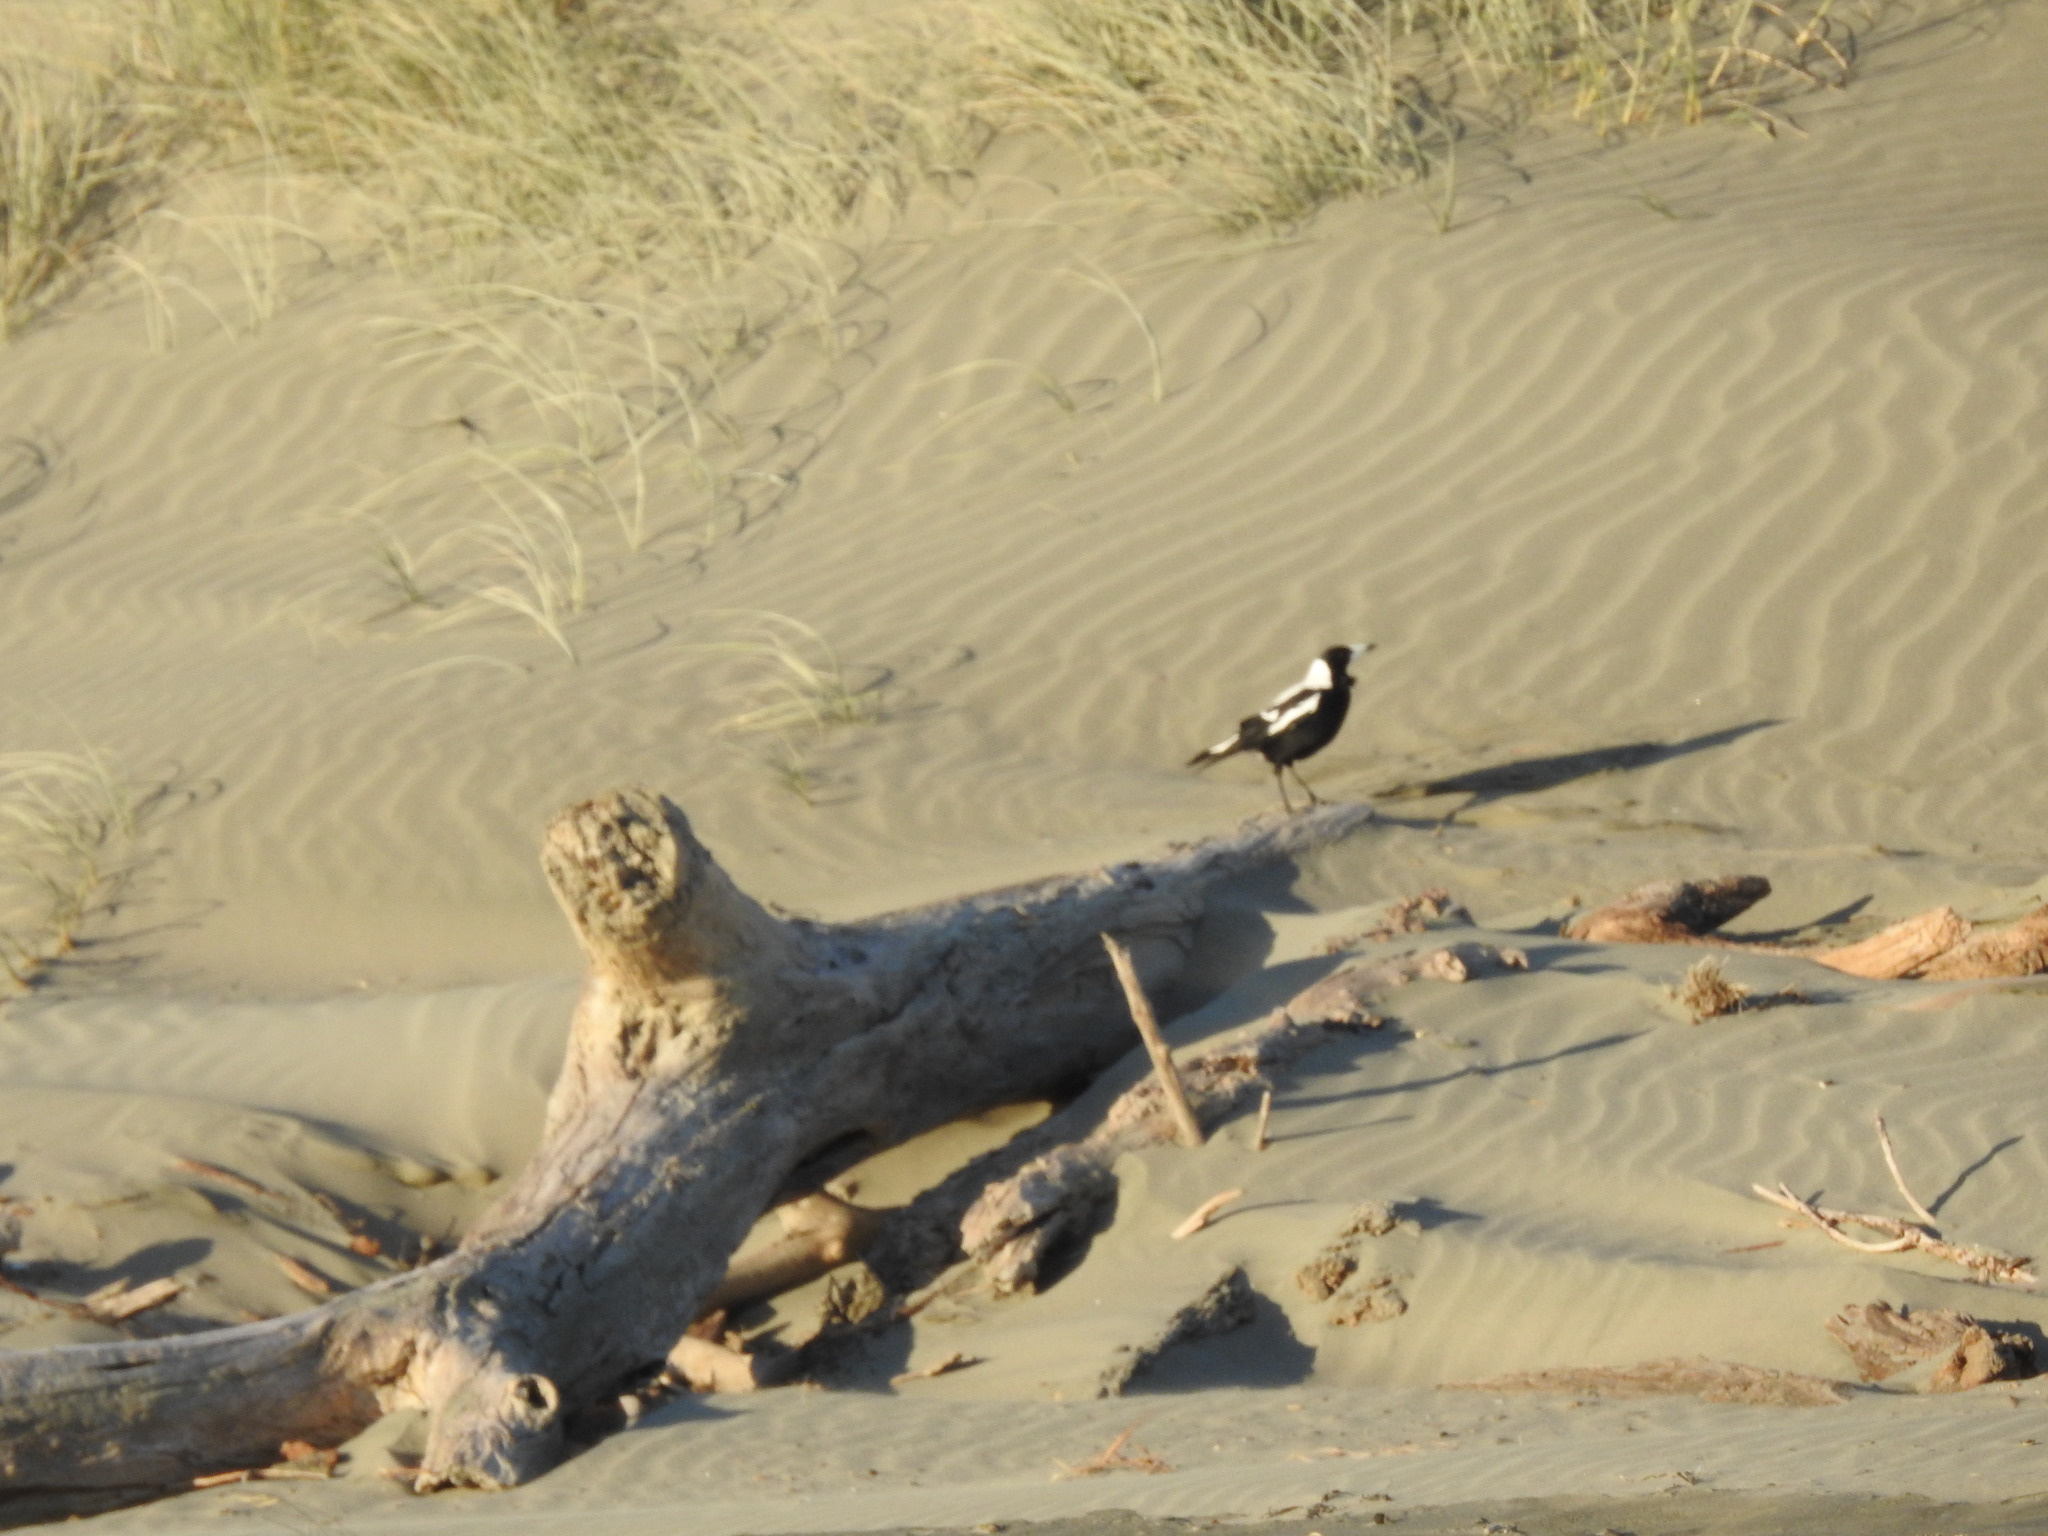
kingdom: Animalia
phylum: Chordata
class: Aves
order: Passeriformes
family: Cracticidae
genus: Gymnorhina
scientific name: Gymnorhina tibicen
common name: Australian magpie
